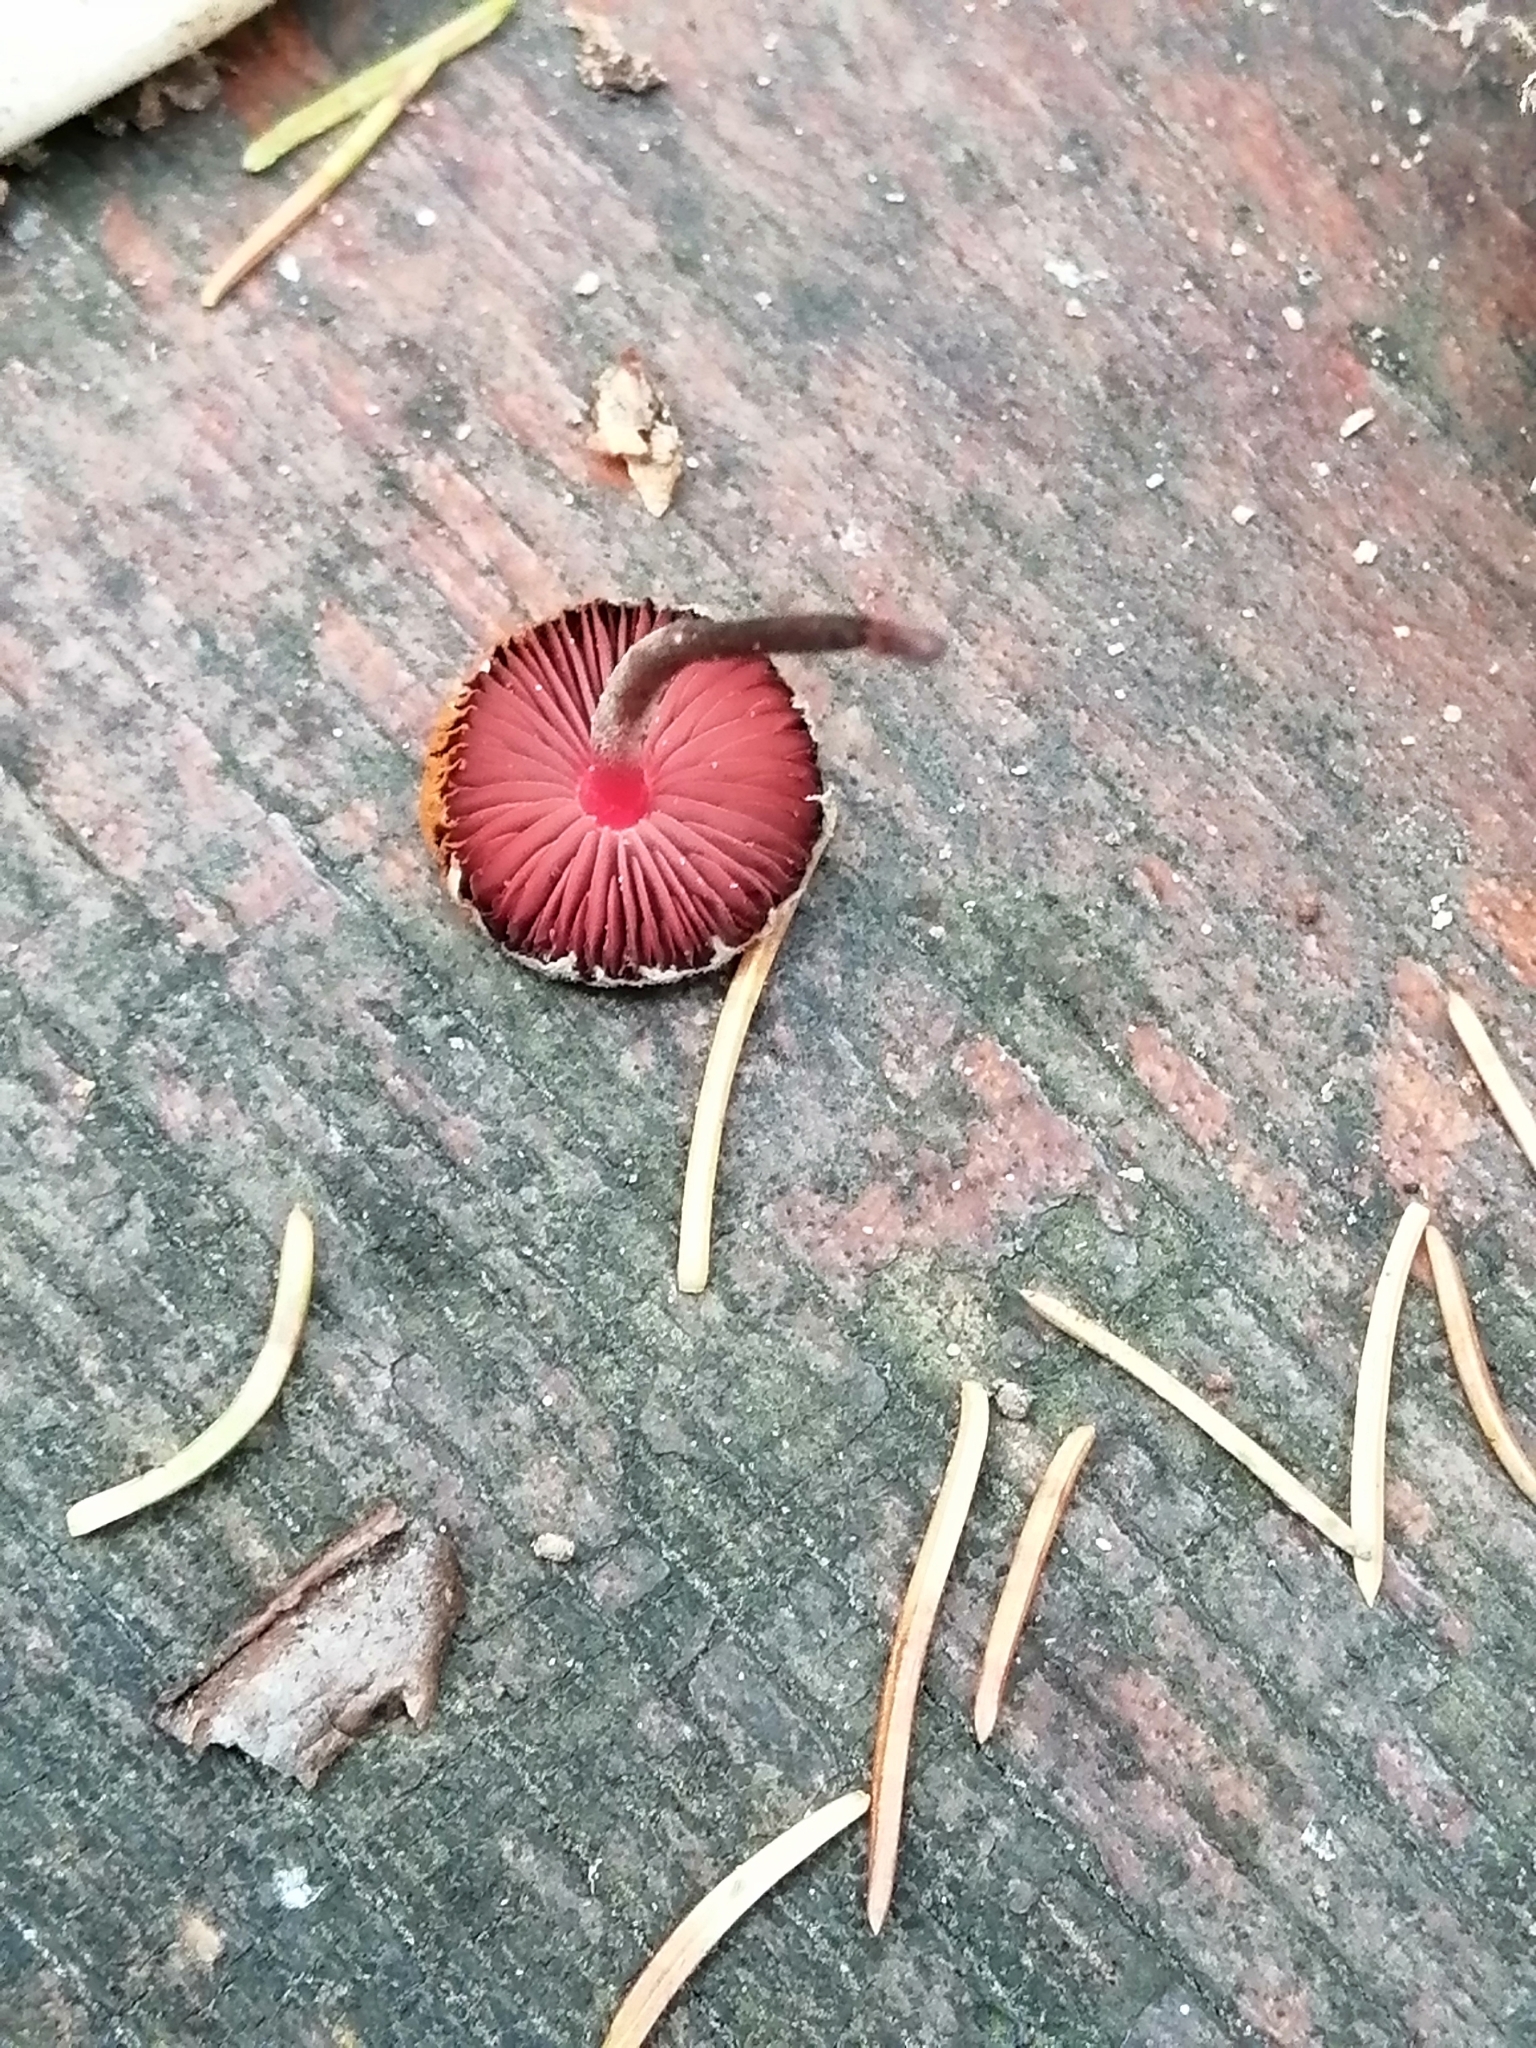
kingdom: Fungi
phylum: Basidiomycota
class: Agaricomycetes
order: Agaricales
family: Agaricaceae
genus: Melanophyllum
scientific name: Melanophyllum haematospermum
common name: Redspored dapperling
